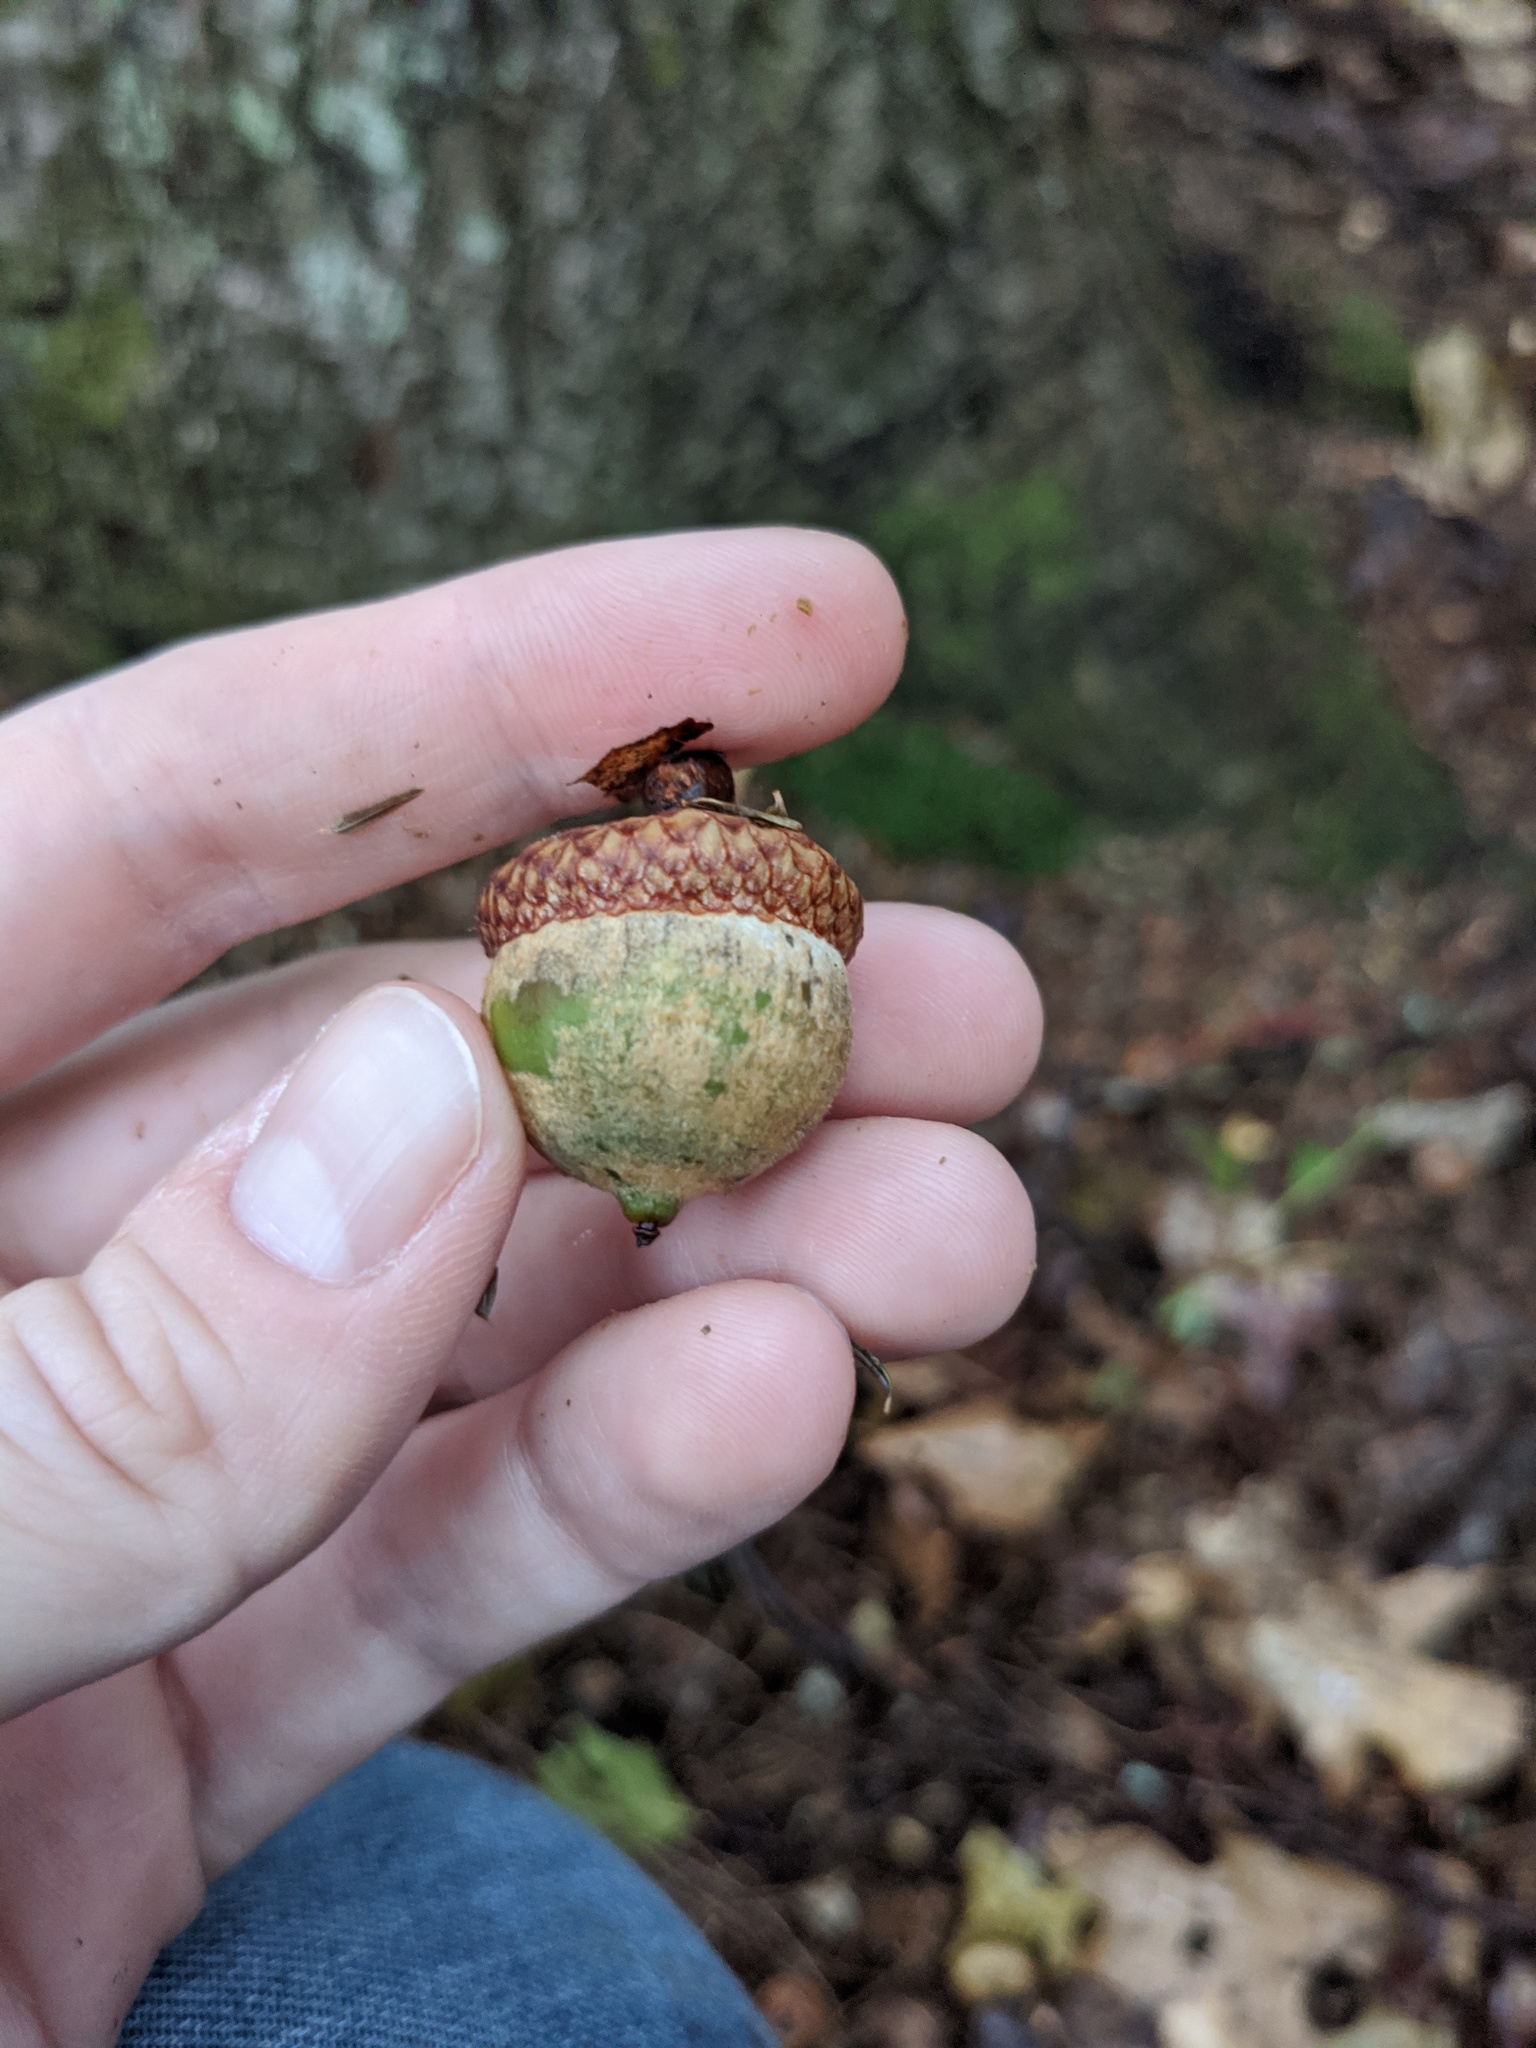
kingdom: Plantae
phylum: Tracheophyta
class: Magnoliopsida
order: Fagales
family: Fagaceae
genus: Quercus
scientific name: Quercus rubra
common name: Red oak
